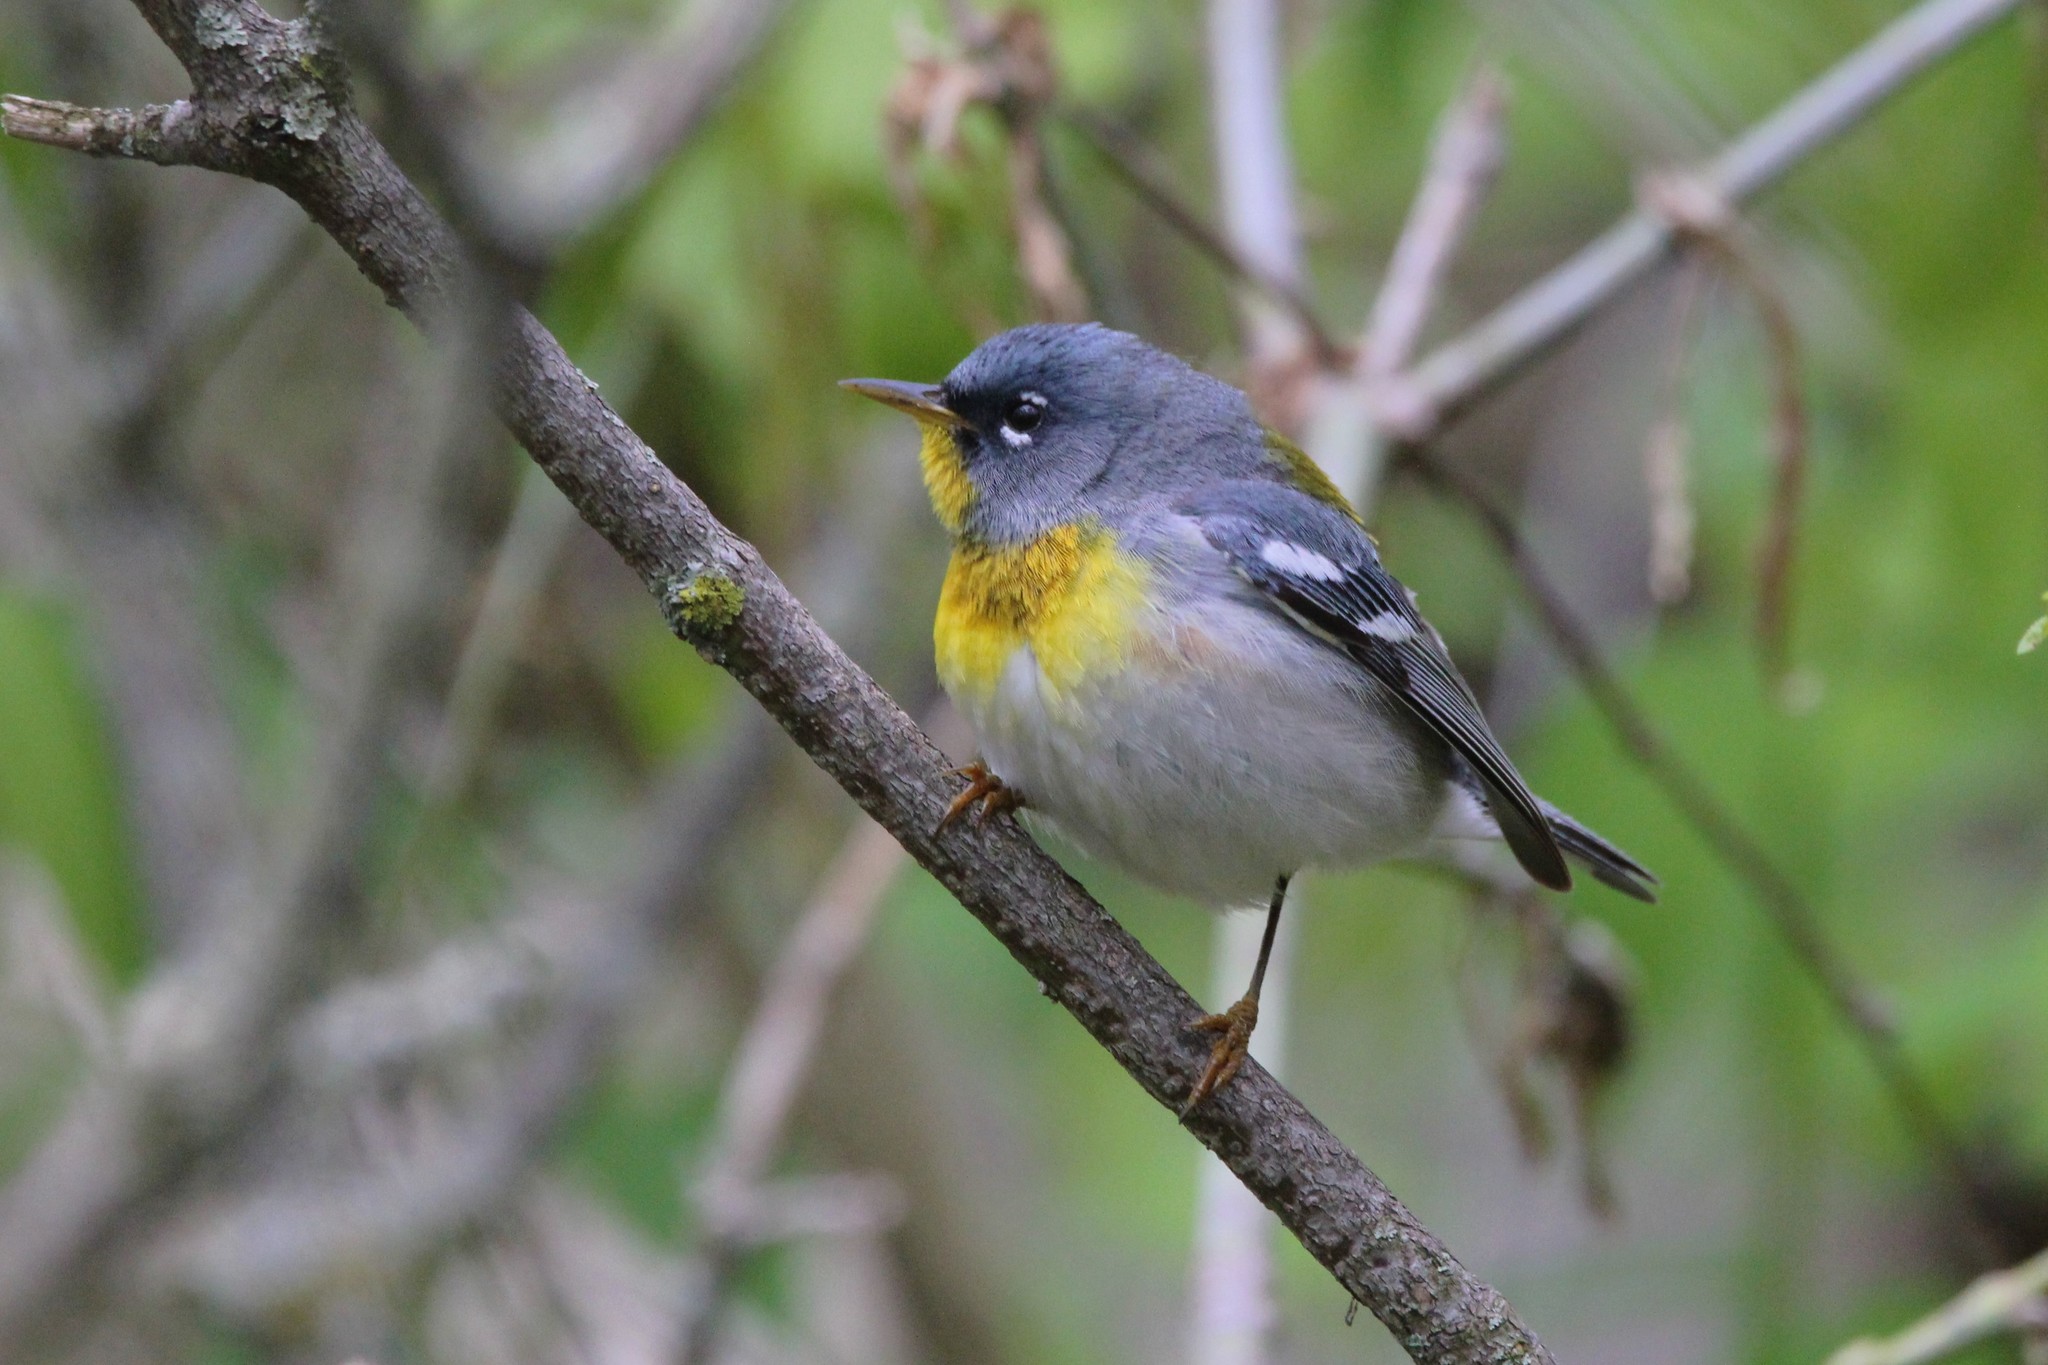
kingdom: Animalia
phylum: Chordata
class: Aves
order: Passeriformes
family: Parulidae
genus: Setophaga
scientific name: Setophaga americana
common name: Northern parula
